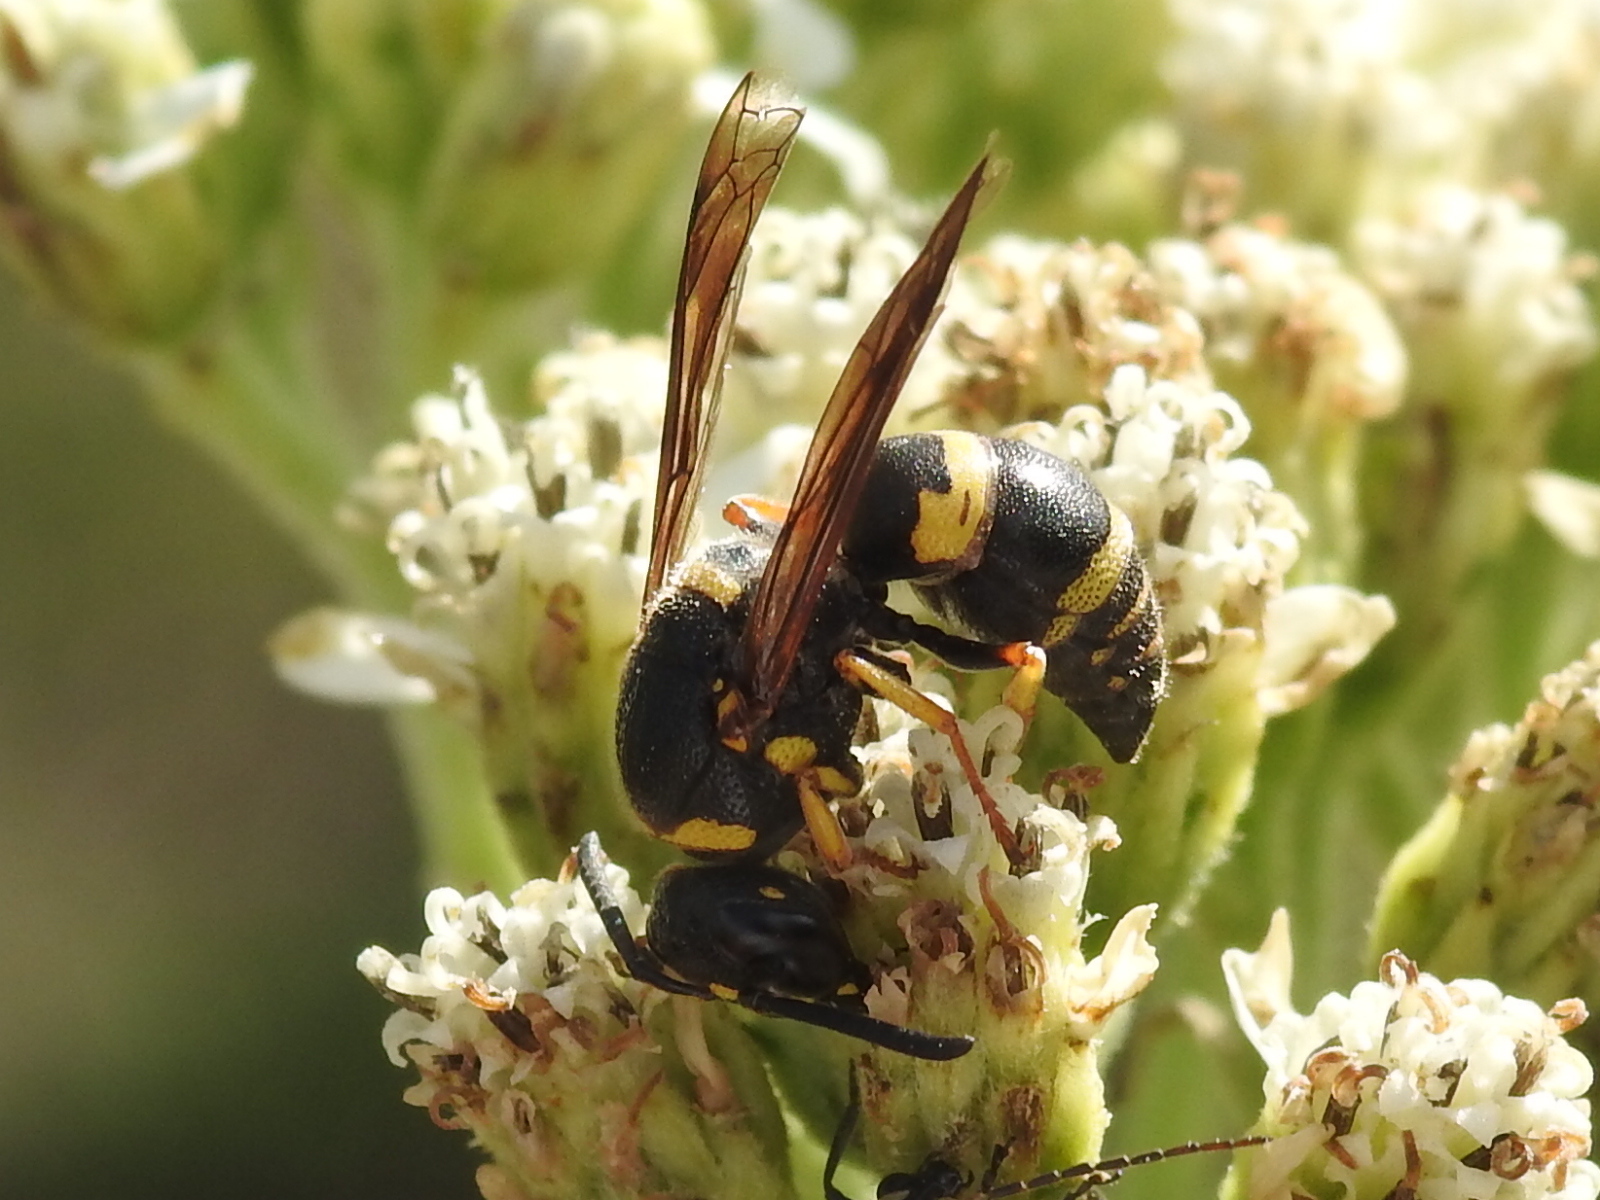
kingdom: Animalia
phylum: Arthropoda
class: Insecta
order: Hymenoptera
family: Eumenidae
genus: Euodynerus
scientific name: Euodynerus foraminatus
